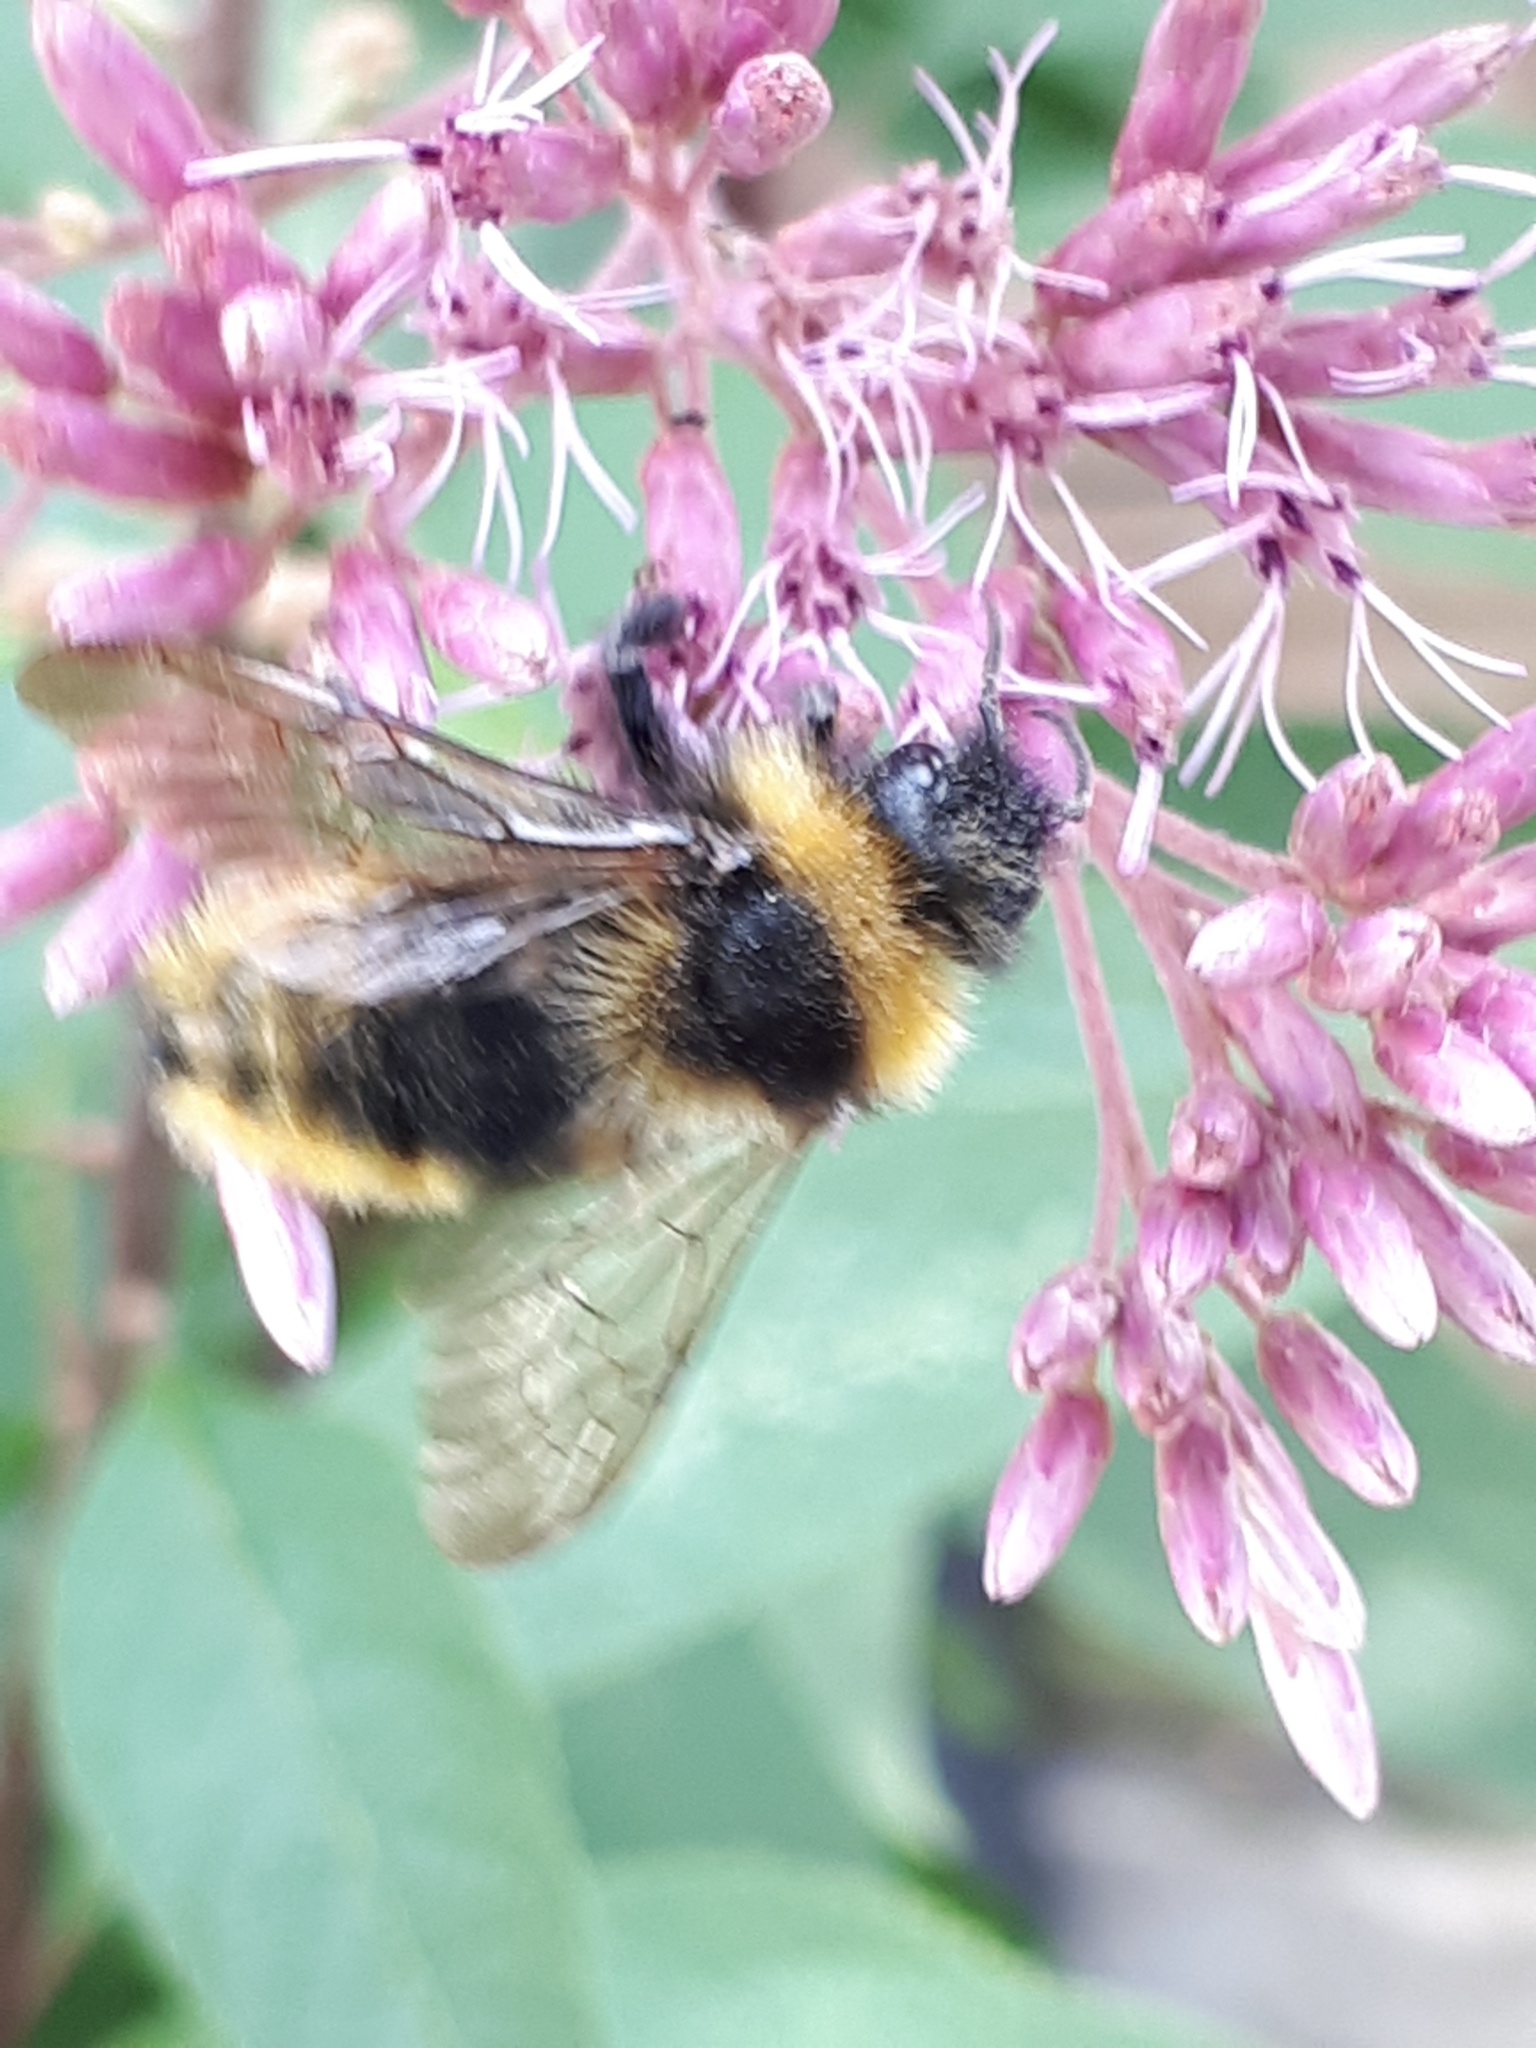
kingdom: Animalia
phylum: Arthropoda
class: Insecta
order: Hymenoptera
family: Apidae
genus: Bombus
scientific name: Bombus campestris
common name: Field cuckoo-bee
